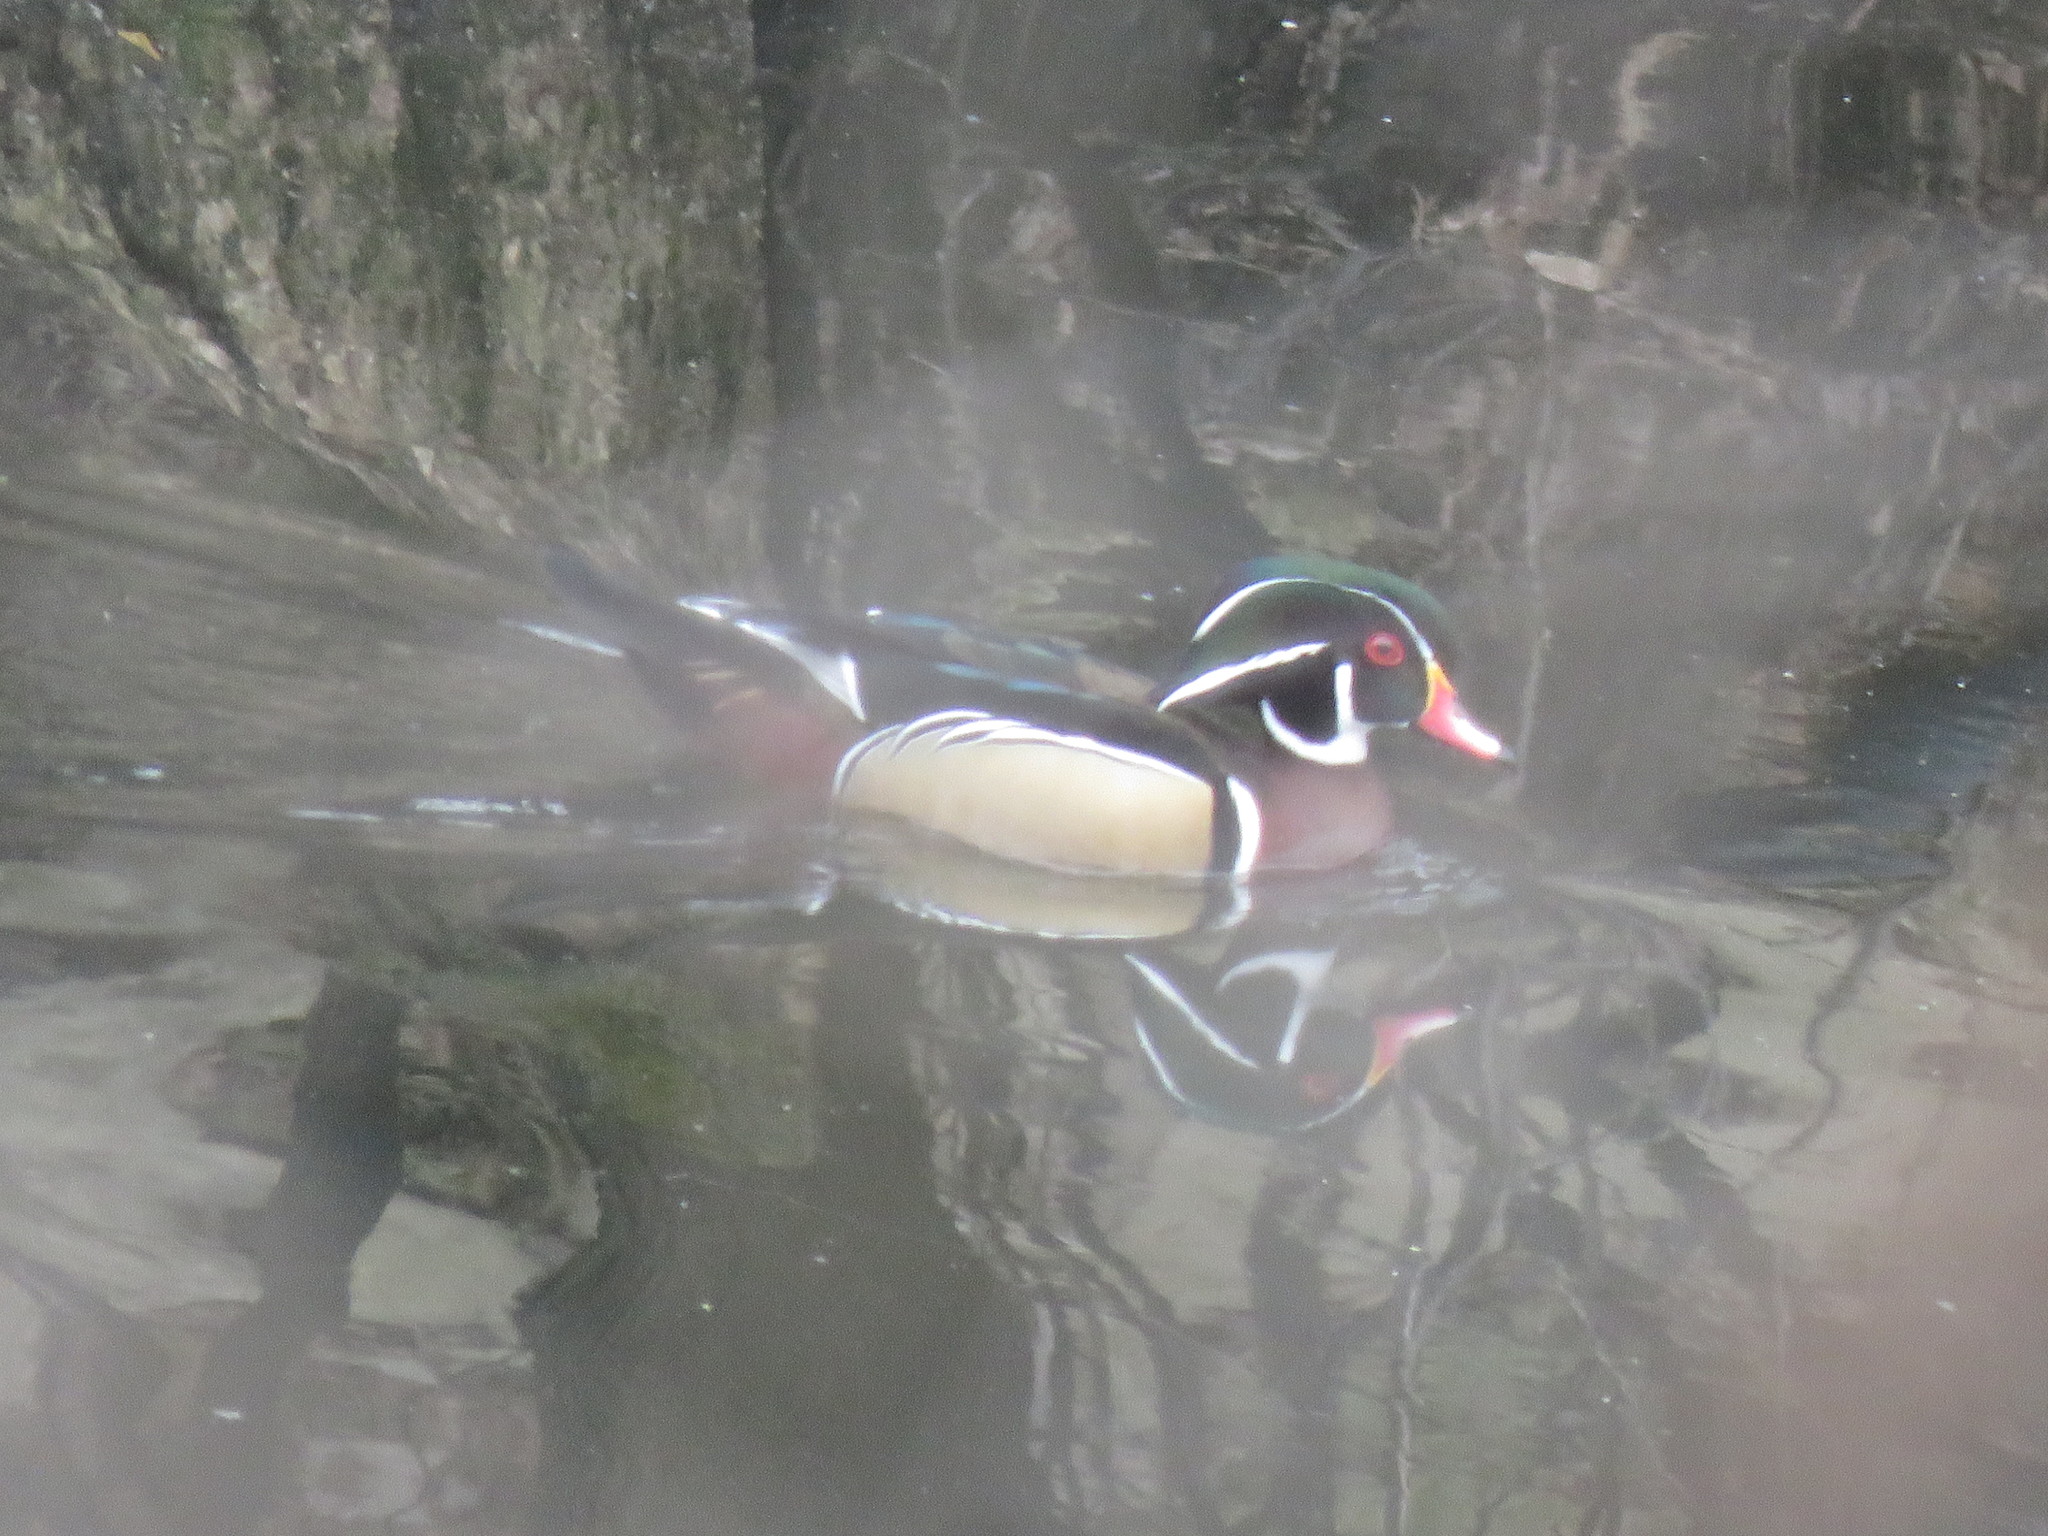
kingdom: Animalia
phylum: Chordata
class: Aves
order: Anseriformes
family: Anatidae
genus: Aix
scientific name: Aix sponsa
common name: Wood duck
